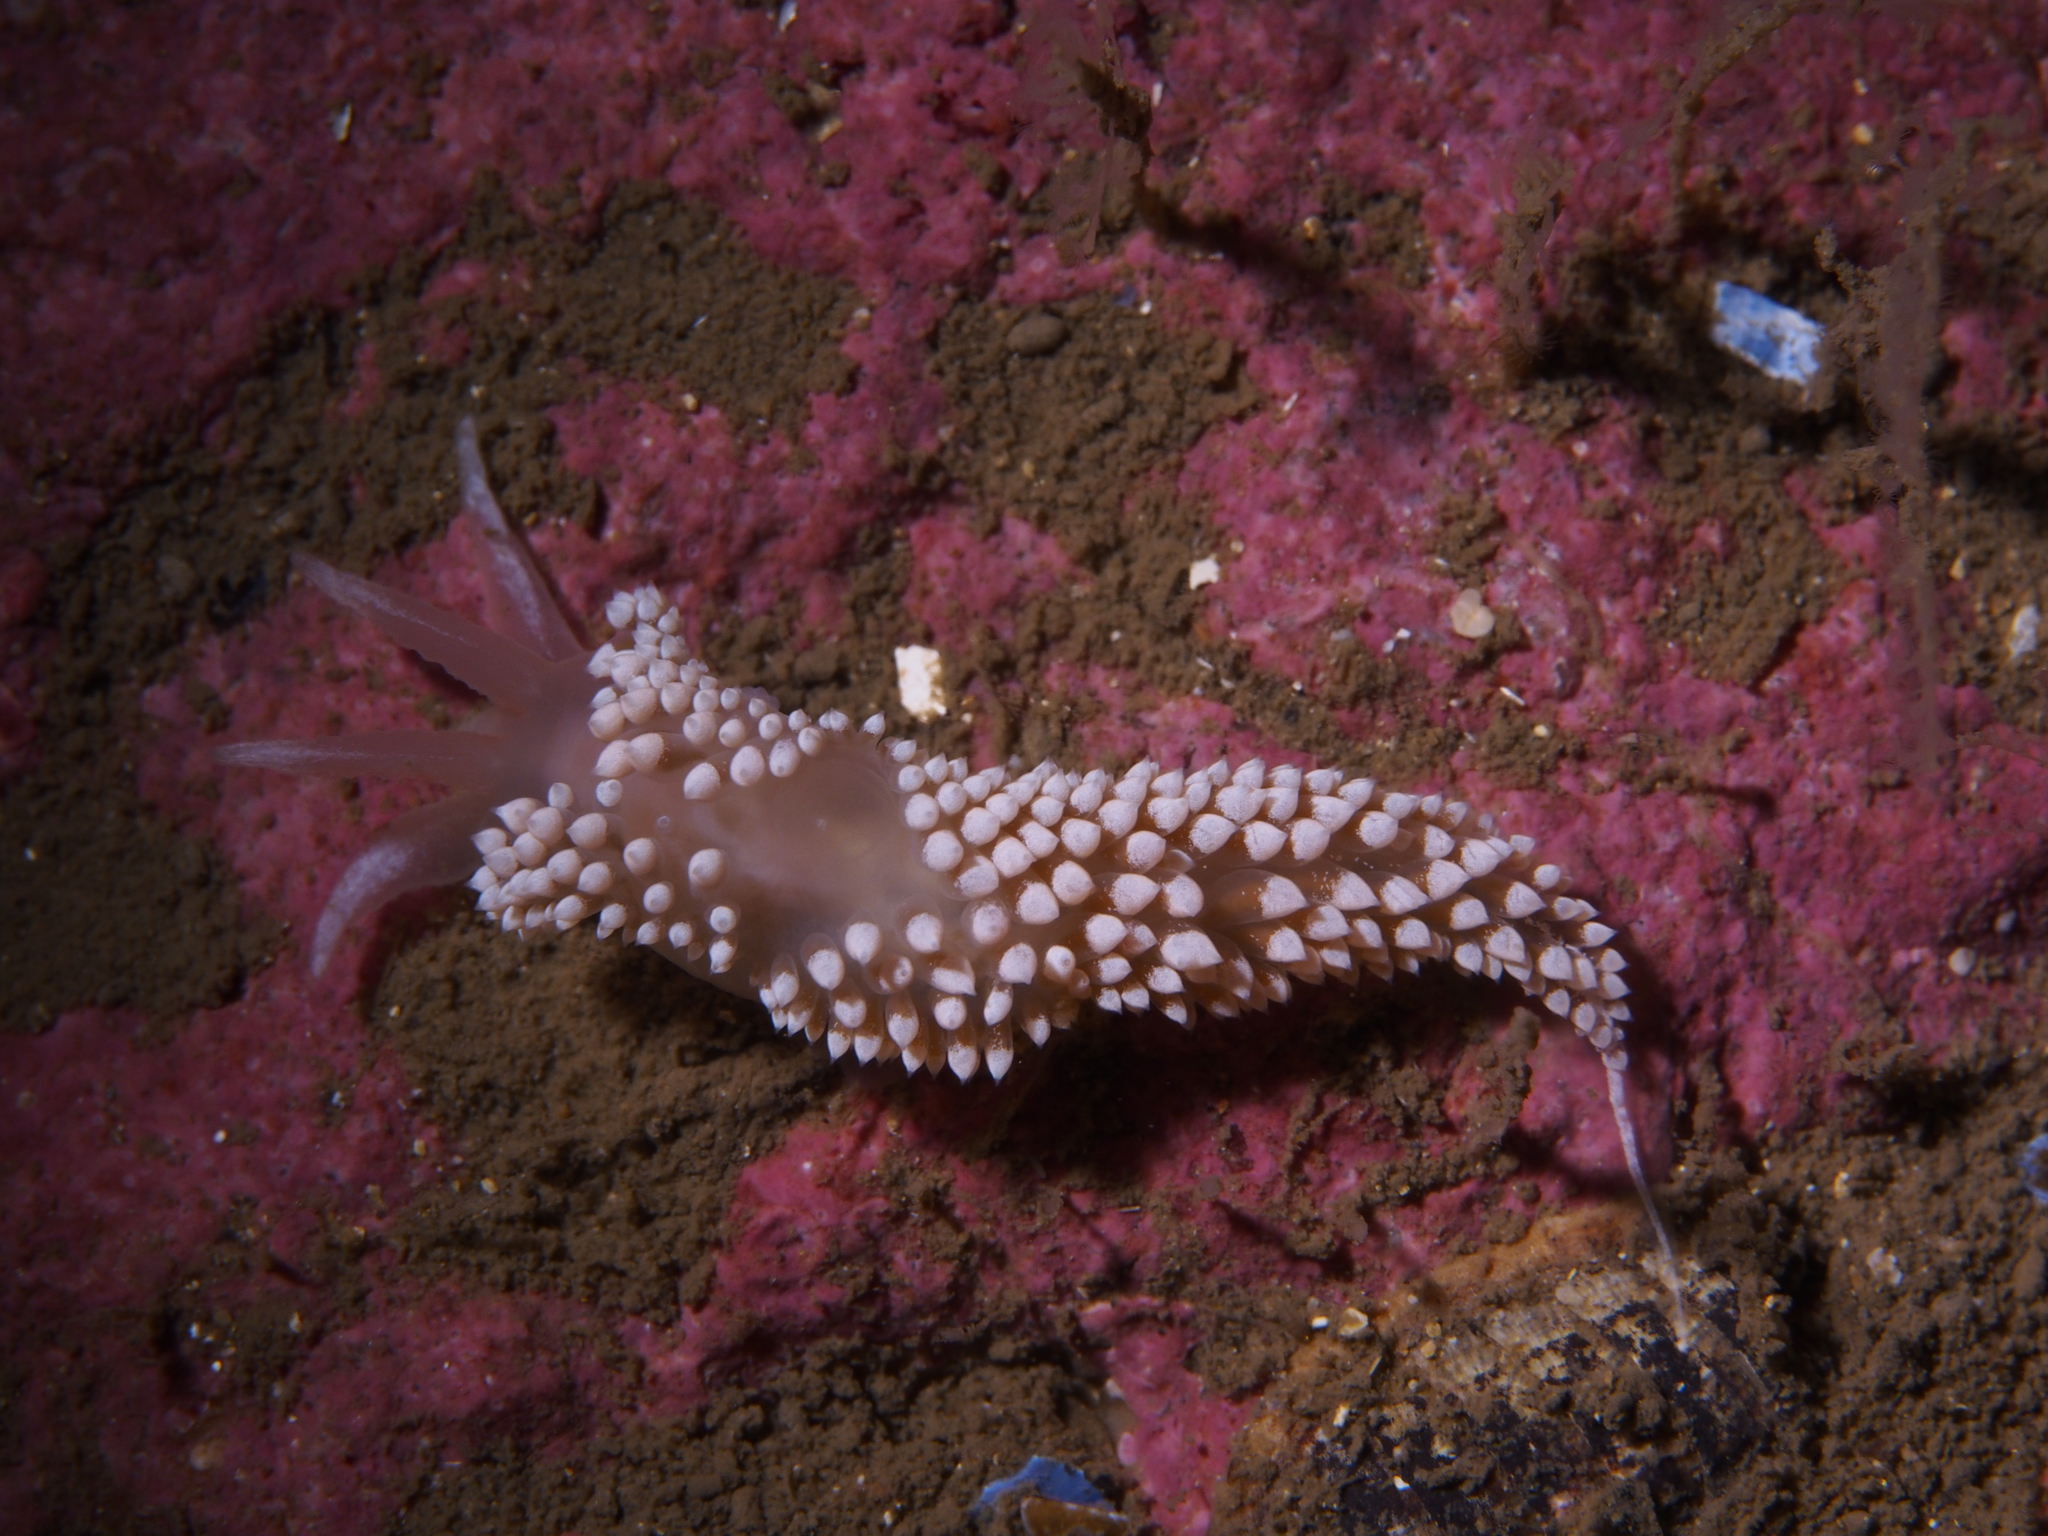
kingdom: Animalia
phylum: Mollusca
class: Gastropoda
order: Nudibranchia
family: Coryphellidae
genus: Coryphella
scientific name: Coryphella verrucosa
